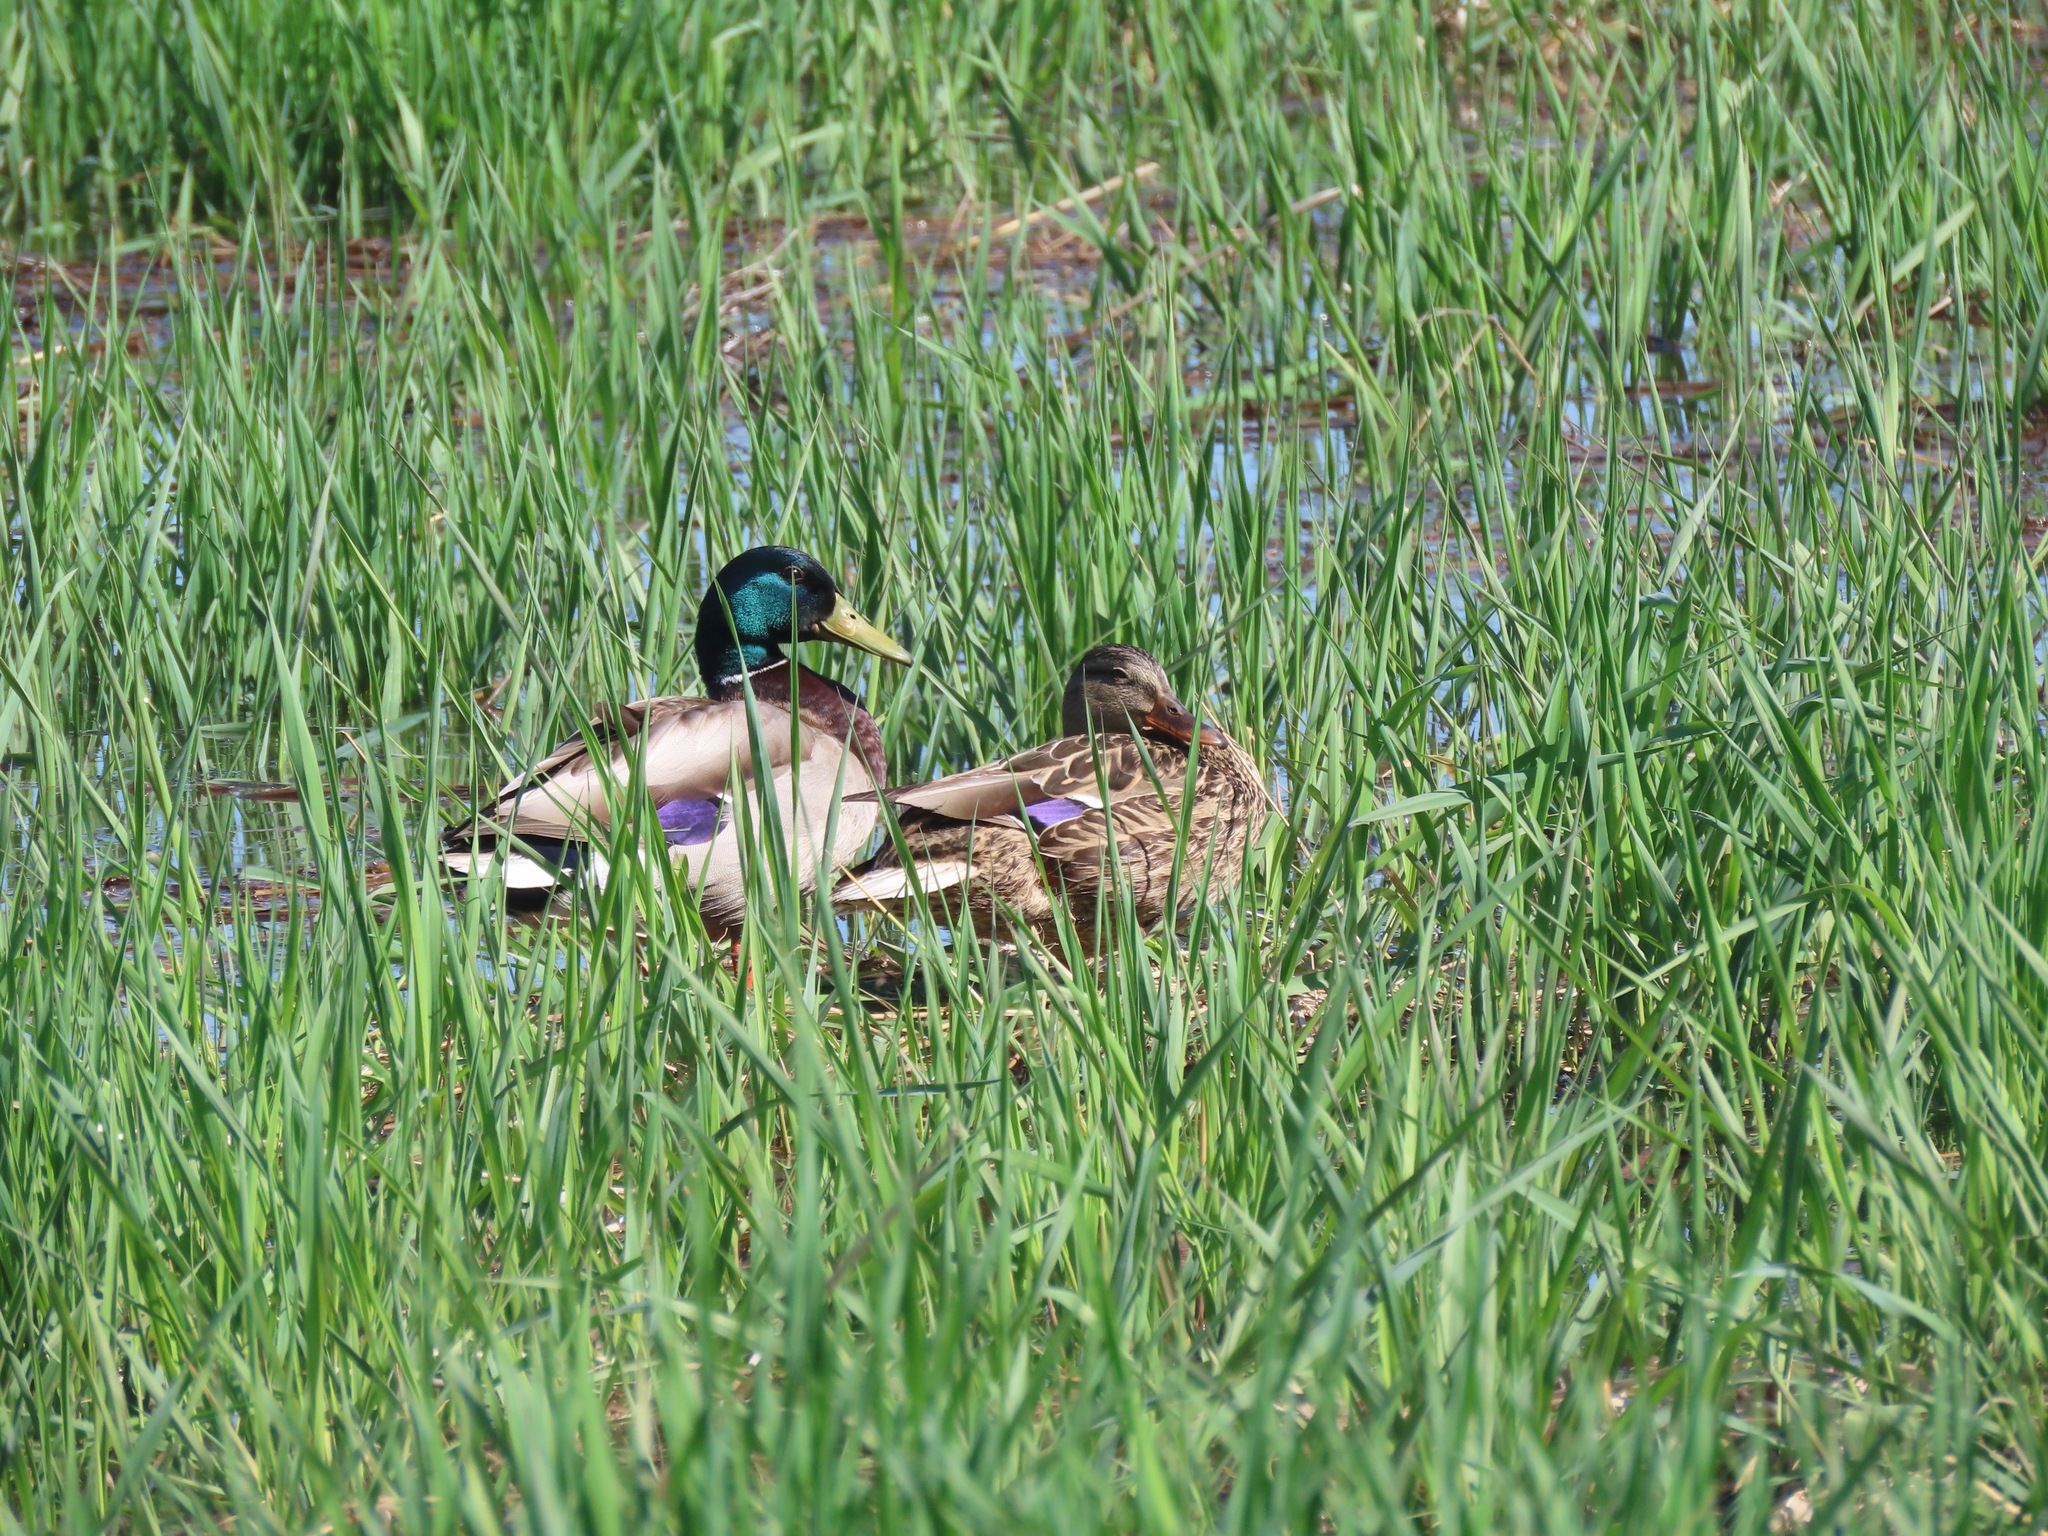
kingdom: Animalia
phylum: Chordata
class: Aves
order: Anseriformes
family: Anatidae
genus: Anas
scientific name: Anas platyrhynchos
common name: Mallard
